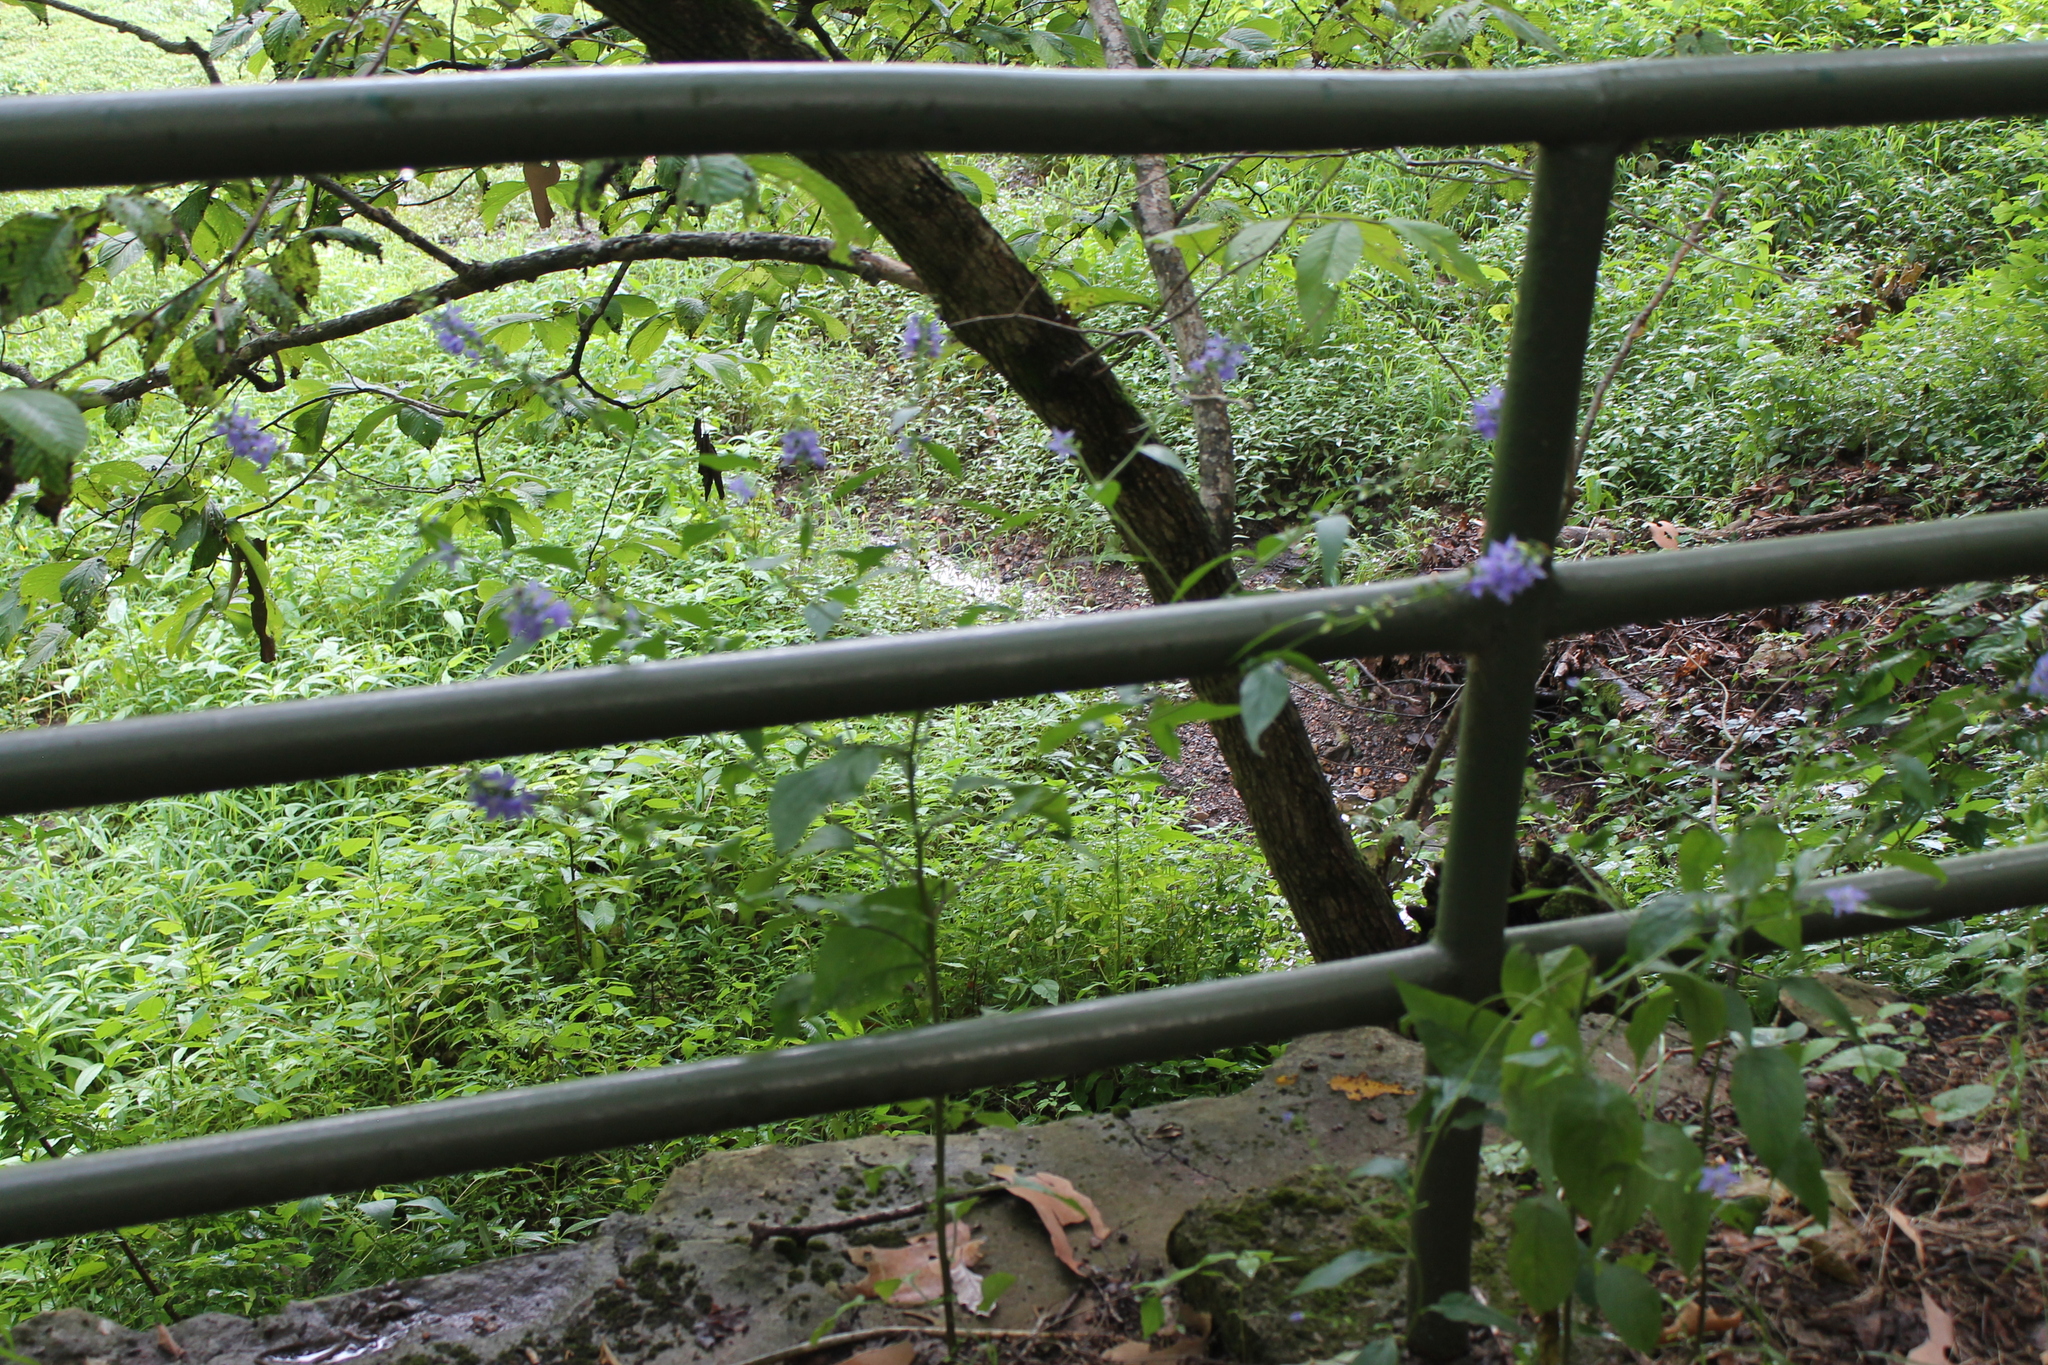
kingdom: Plantae
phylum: Tracheophyta
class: Magnoliopsida
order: Asterales
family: Campanulaceae
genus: Campanulastrum
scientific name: Campanulastrum americanum
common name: American bellflower
